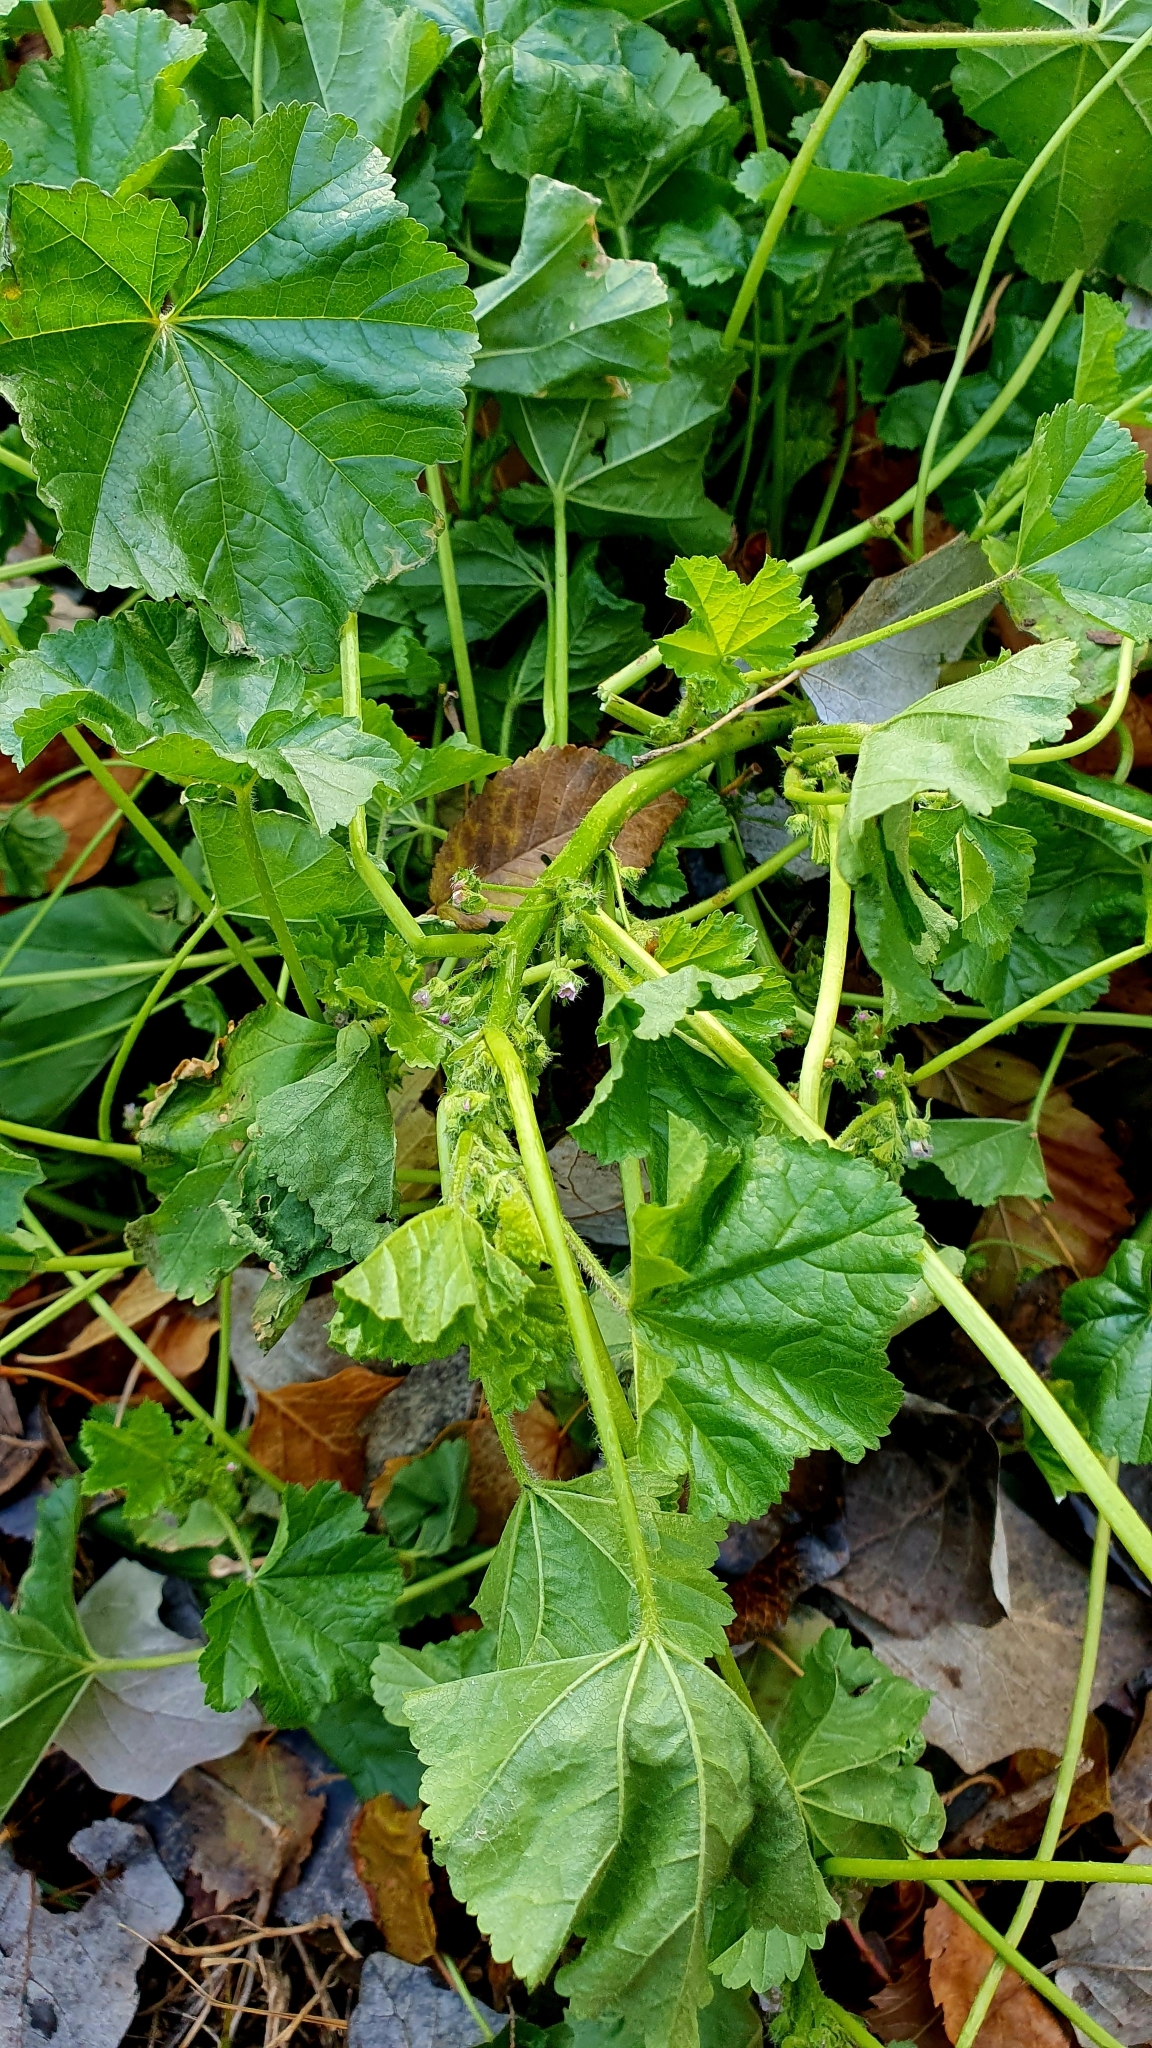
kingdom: Plantae
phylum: Tracheophyta
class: Magnoliopsida
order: Malvales
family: Malvaceae
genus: Malva
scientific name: Malva pusilla
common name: Small mallow
